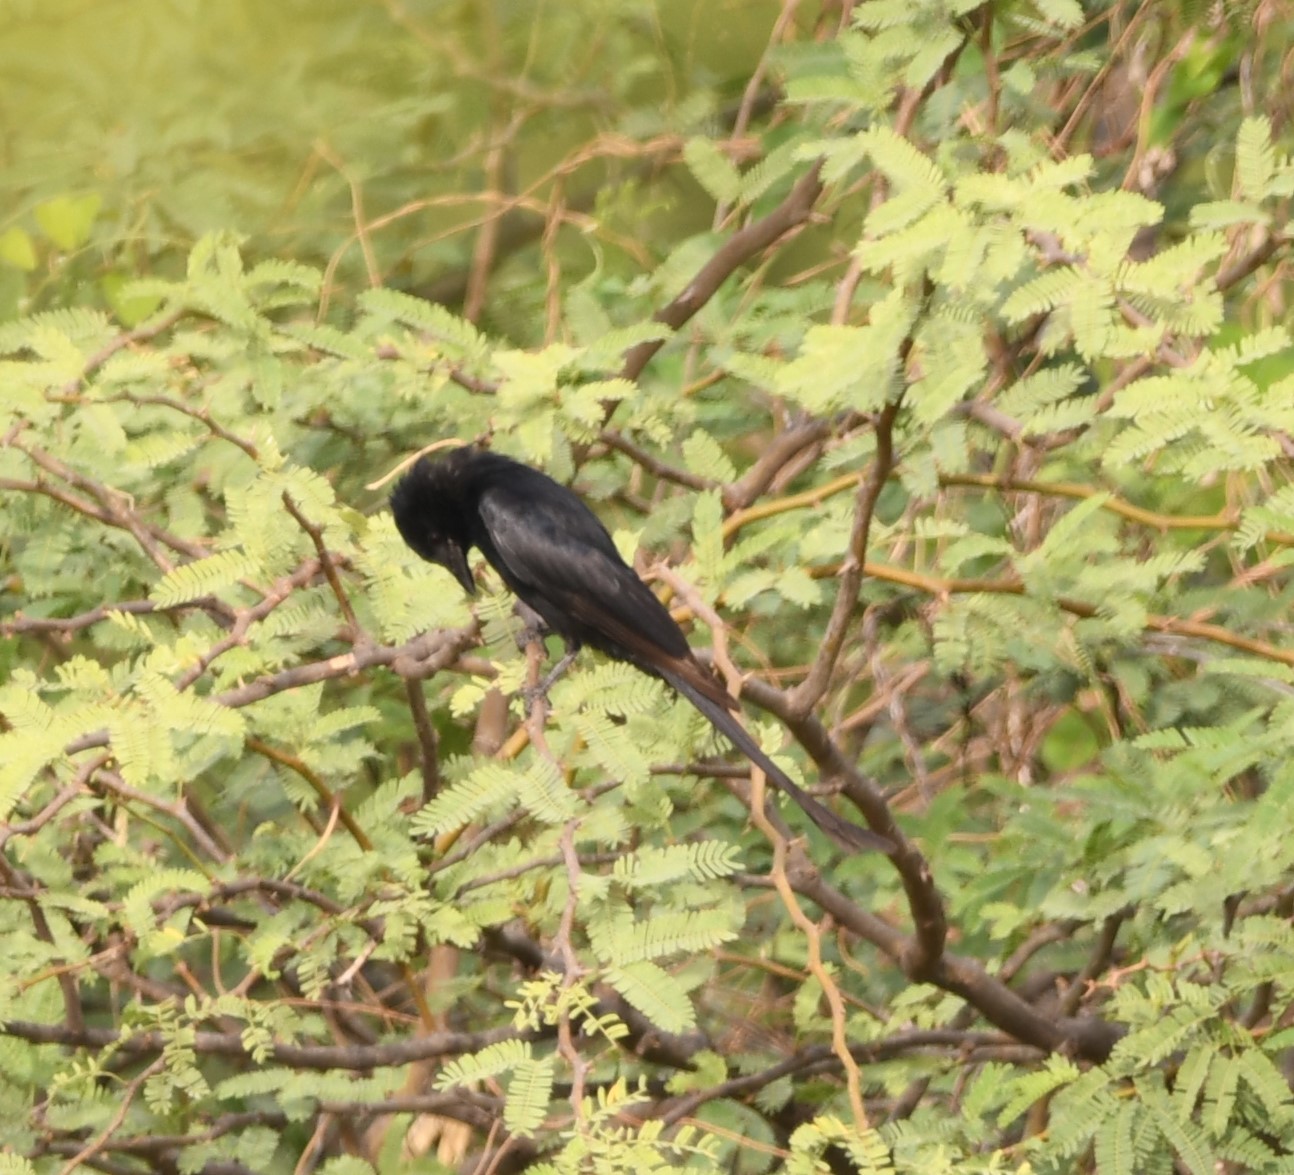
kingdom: Animalia
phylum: Chordata
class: Aves
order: Passeriformes
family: Dicruridae
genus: Dicrurus
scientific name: Dicrurus macrocercus
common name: Black drongo
